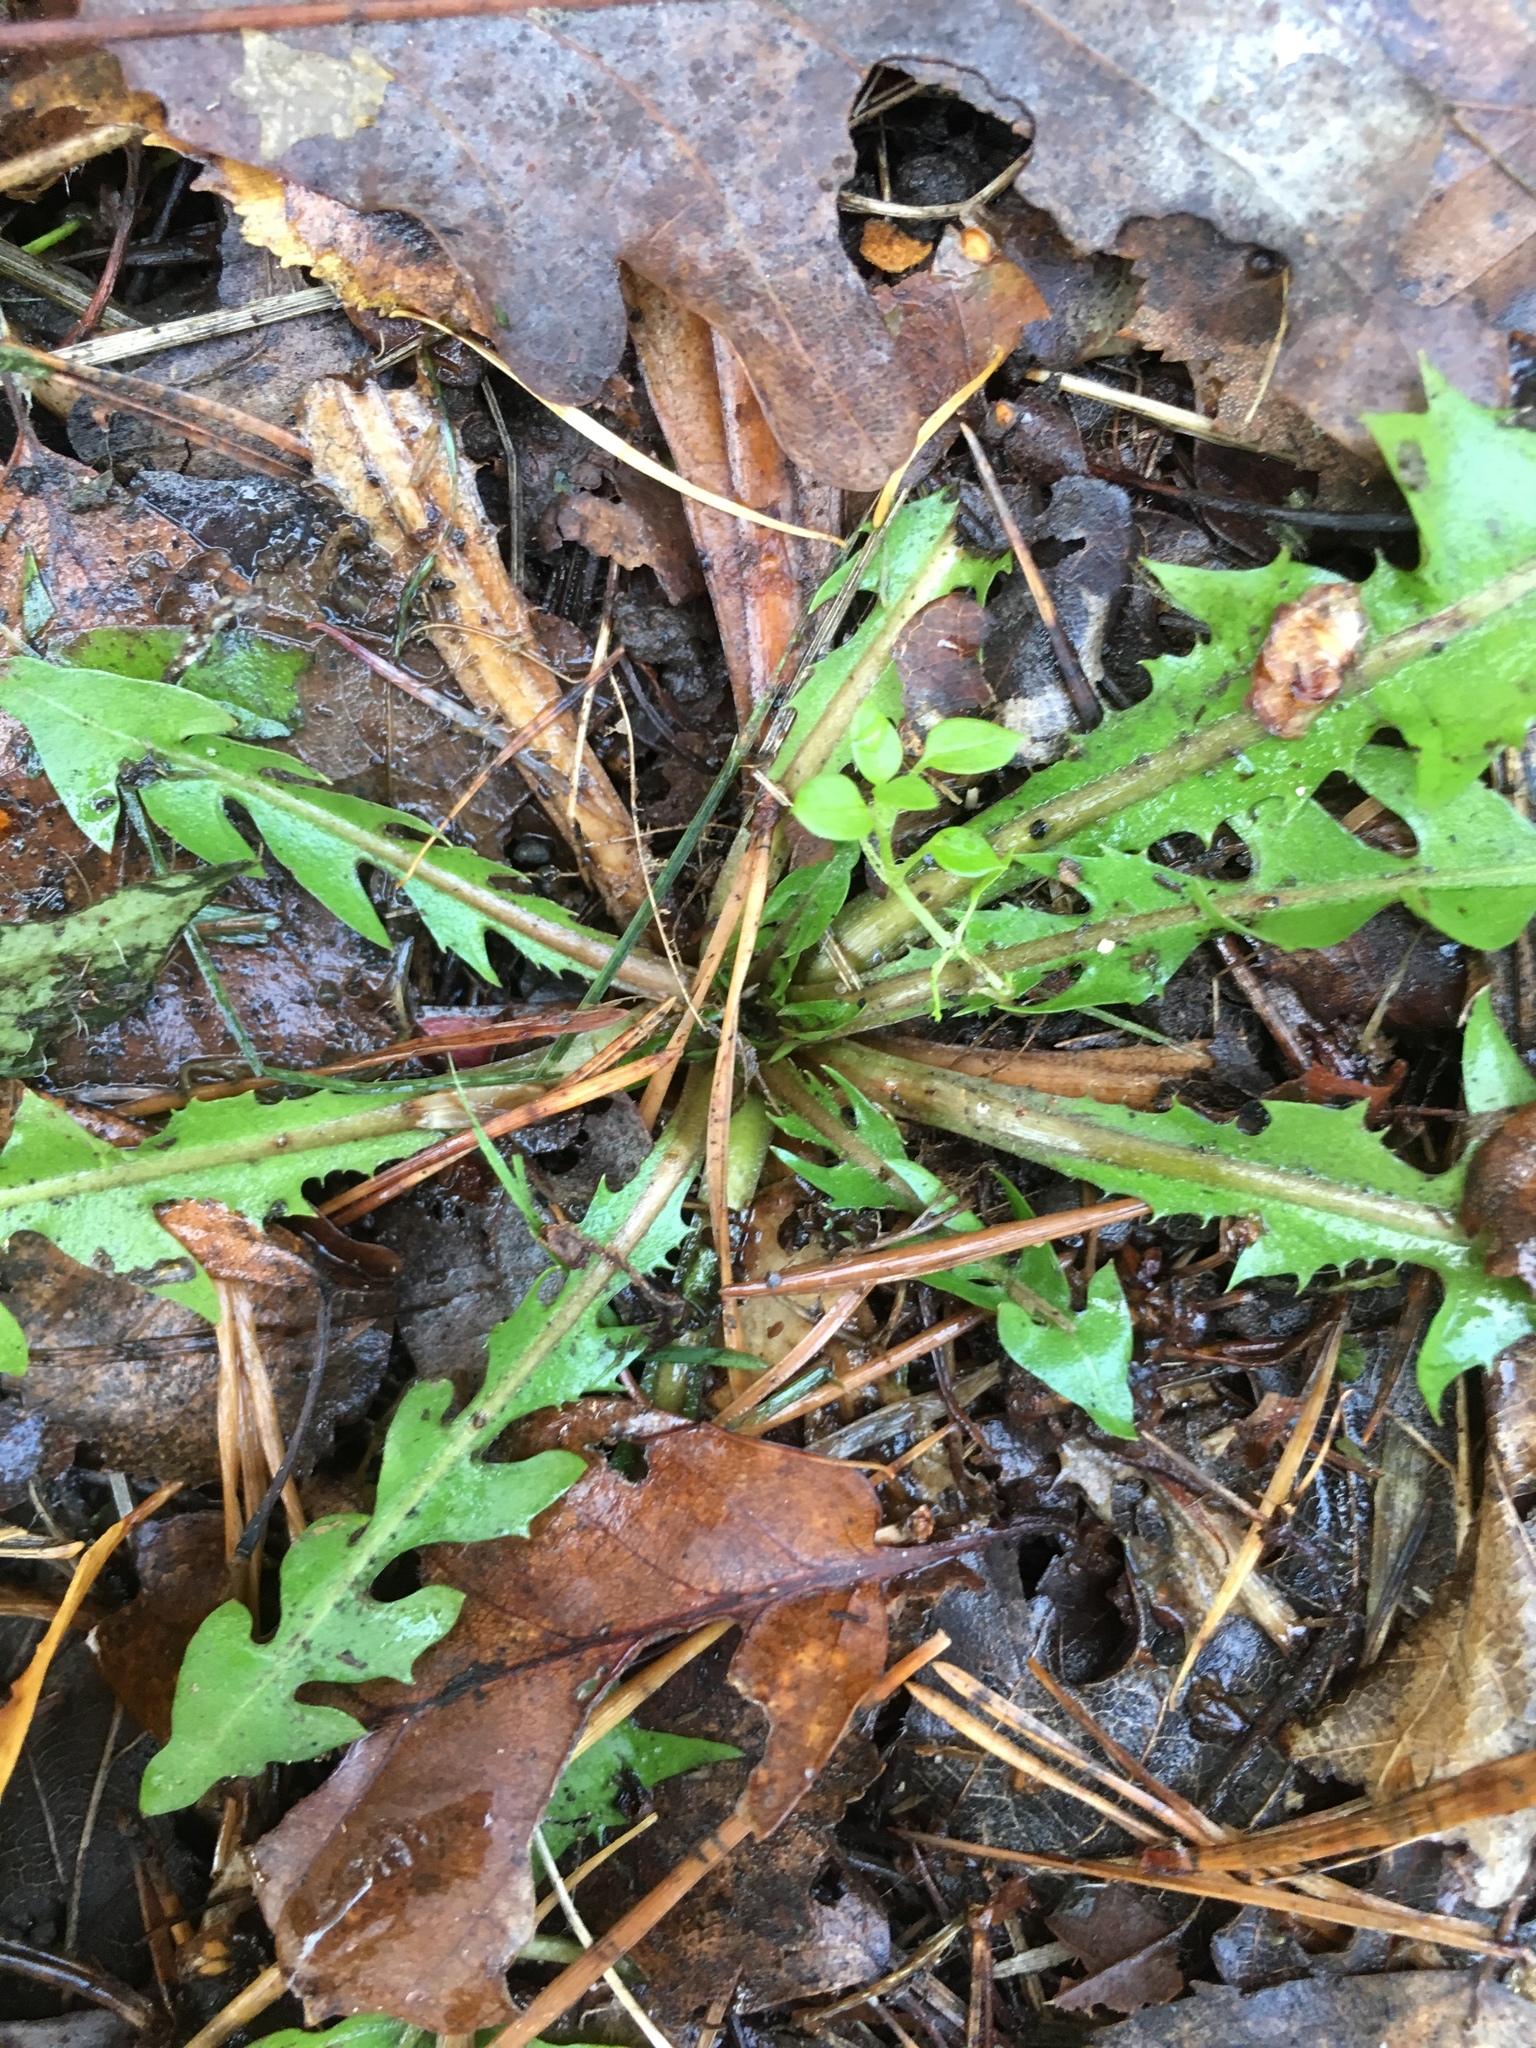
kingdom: Plantae
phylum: Tracheophyta
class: Magnoliopsida
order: Asterales
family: Asteraceae
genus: Taraxacum
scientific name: Taraxacum officinale
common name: Common dandelion
